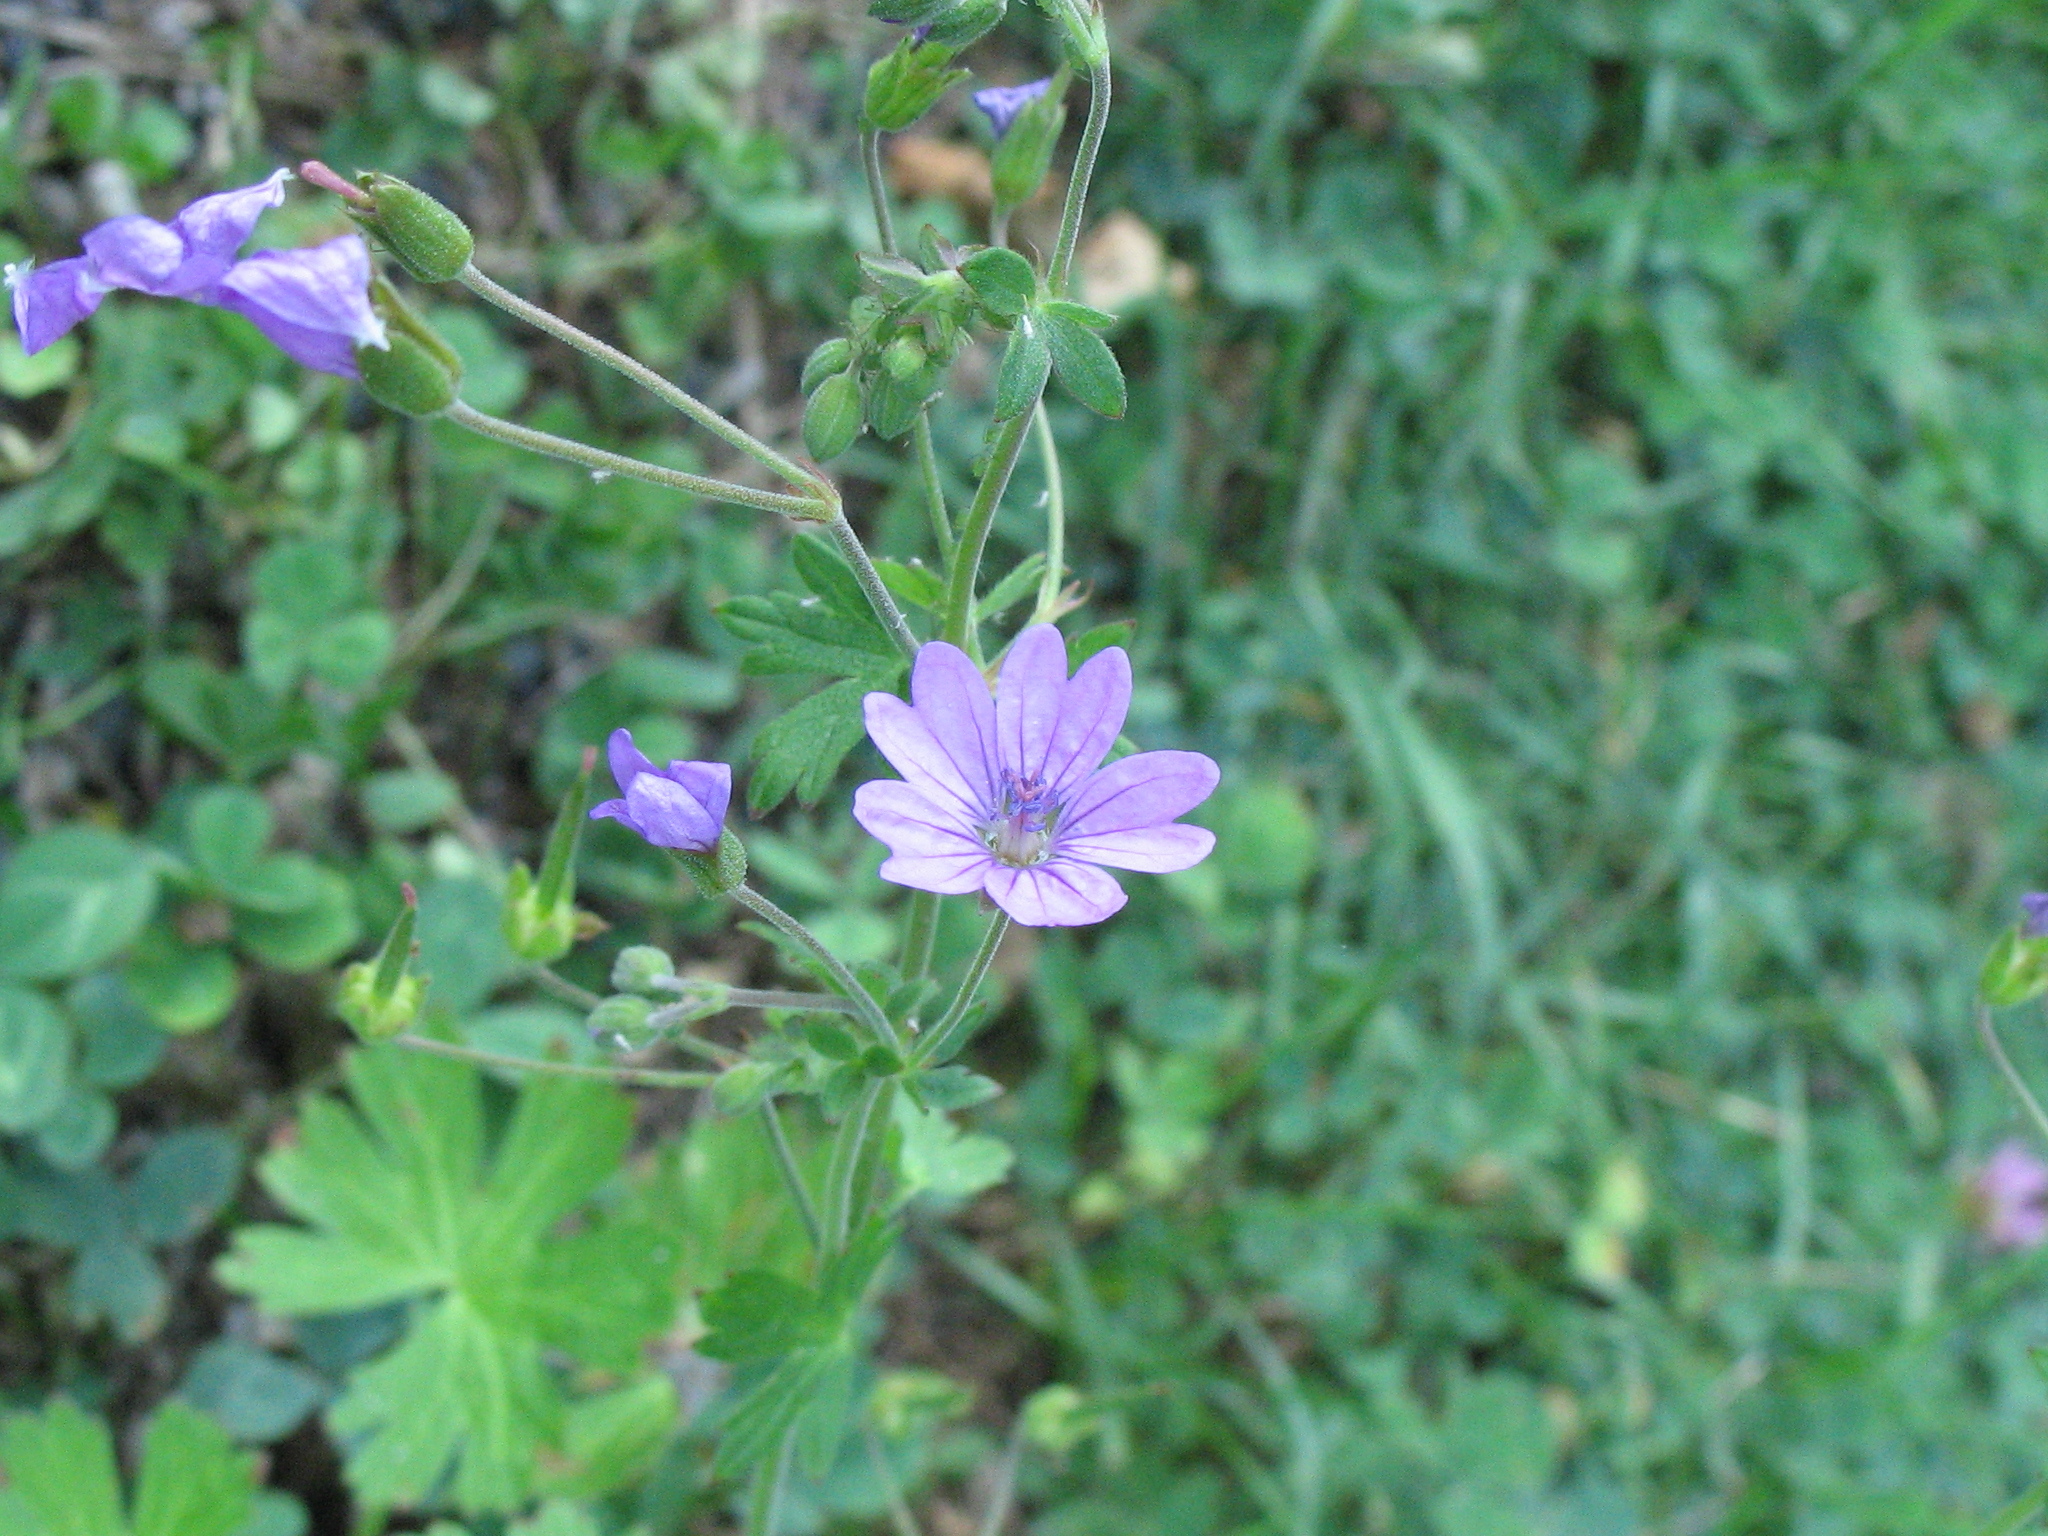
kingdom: Plantae
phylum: Tracheophyta
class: Magnoliopsida
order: Geraniales
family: Geraniaceae
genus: Geranium
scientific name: Geranium pyrenaicum
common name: Hedgerow crane's-bill
